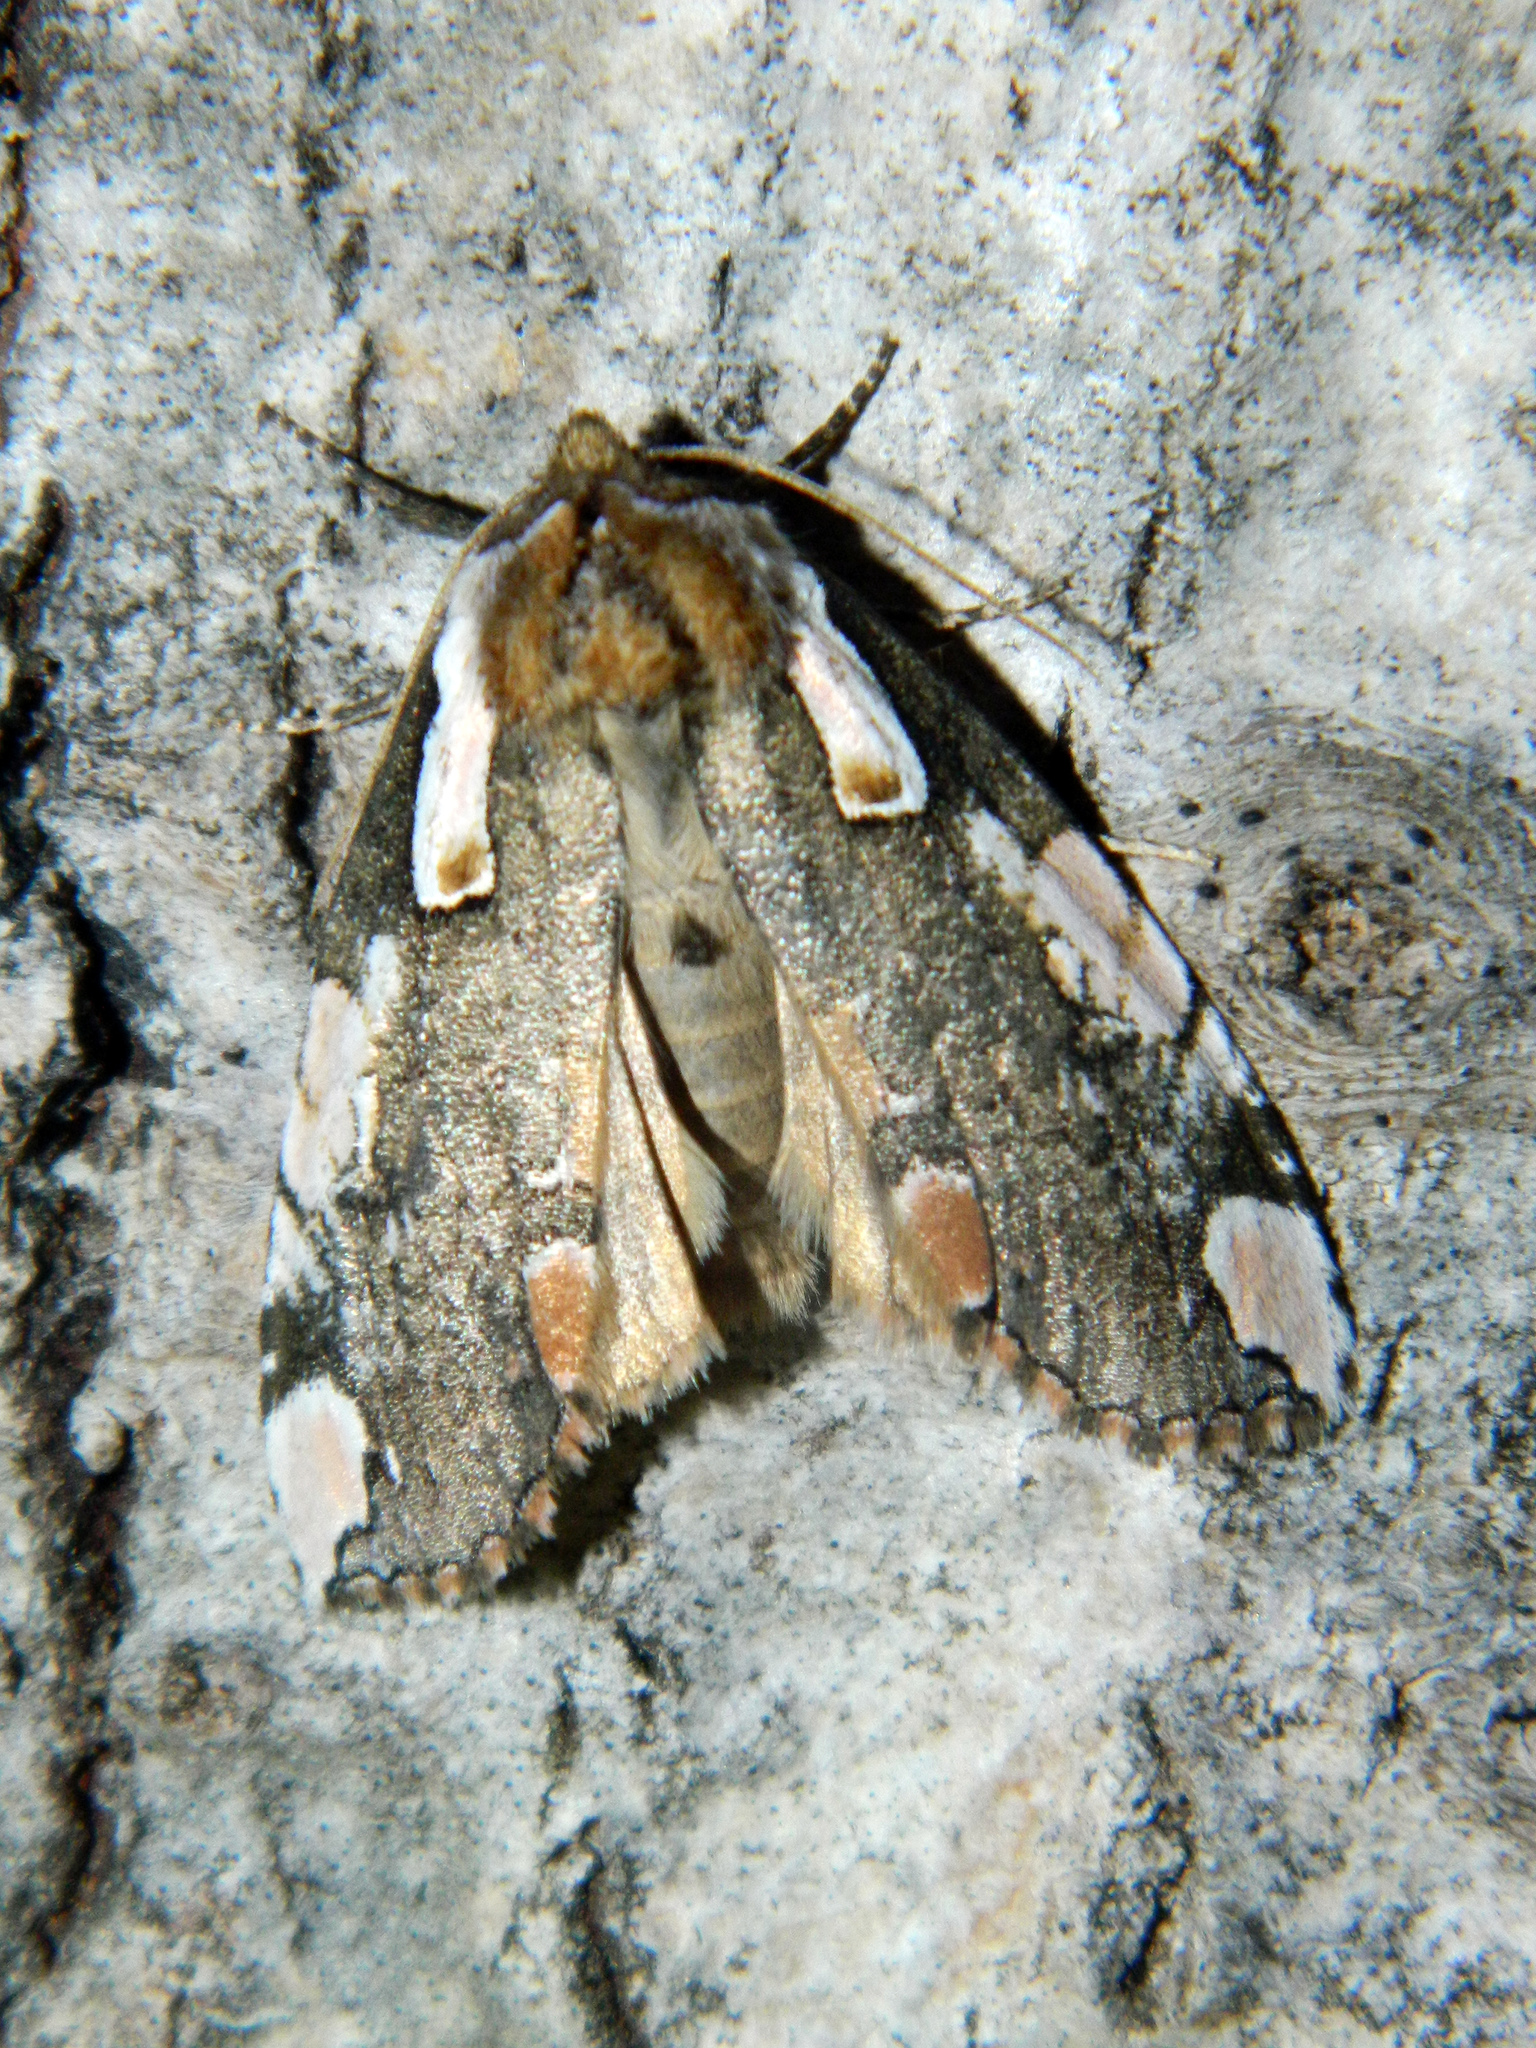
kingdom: Animalia
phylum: Arthropoda
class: Insecta
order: Lepidoptera
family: Drepanidae
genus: Euthyatira
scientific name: Euthyatira pudens
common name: Dogwood thyatirid moth
